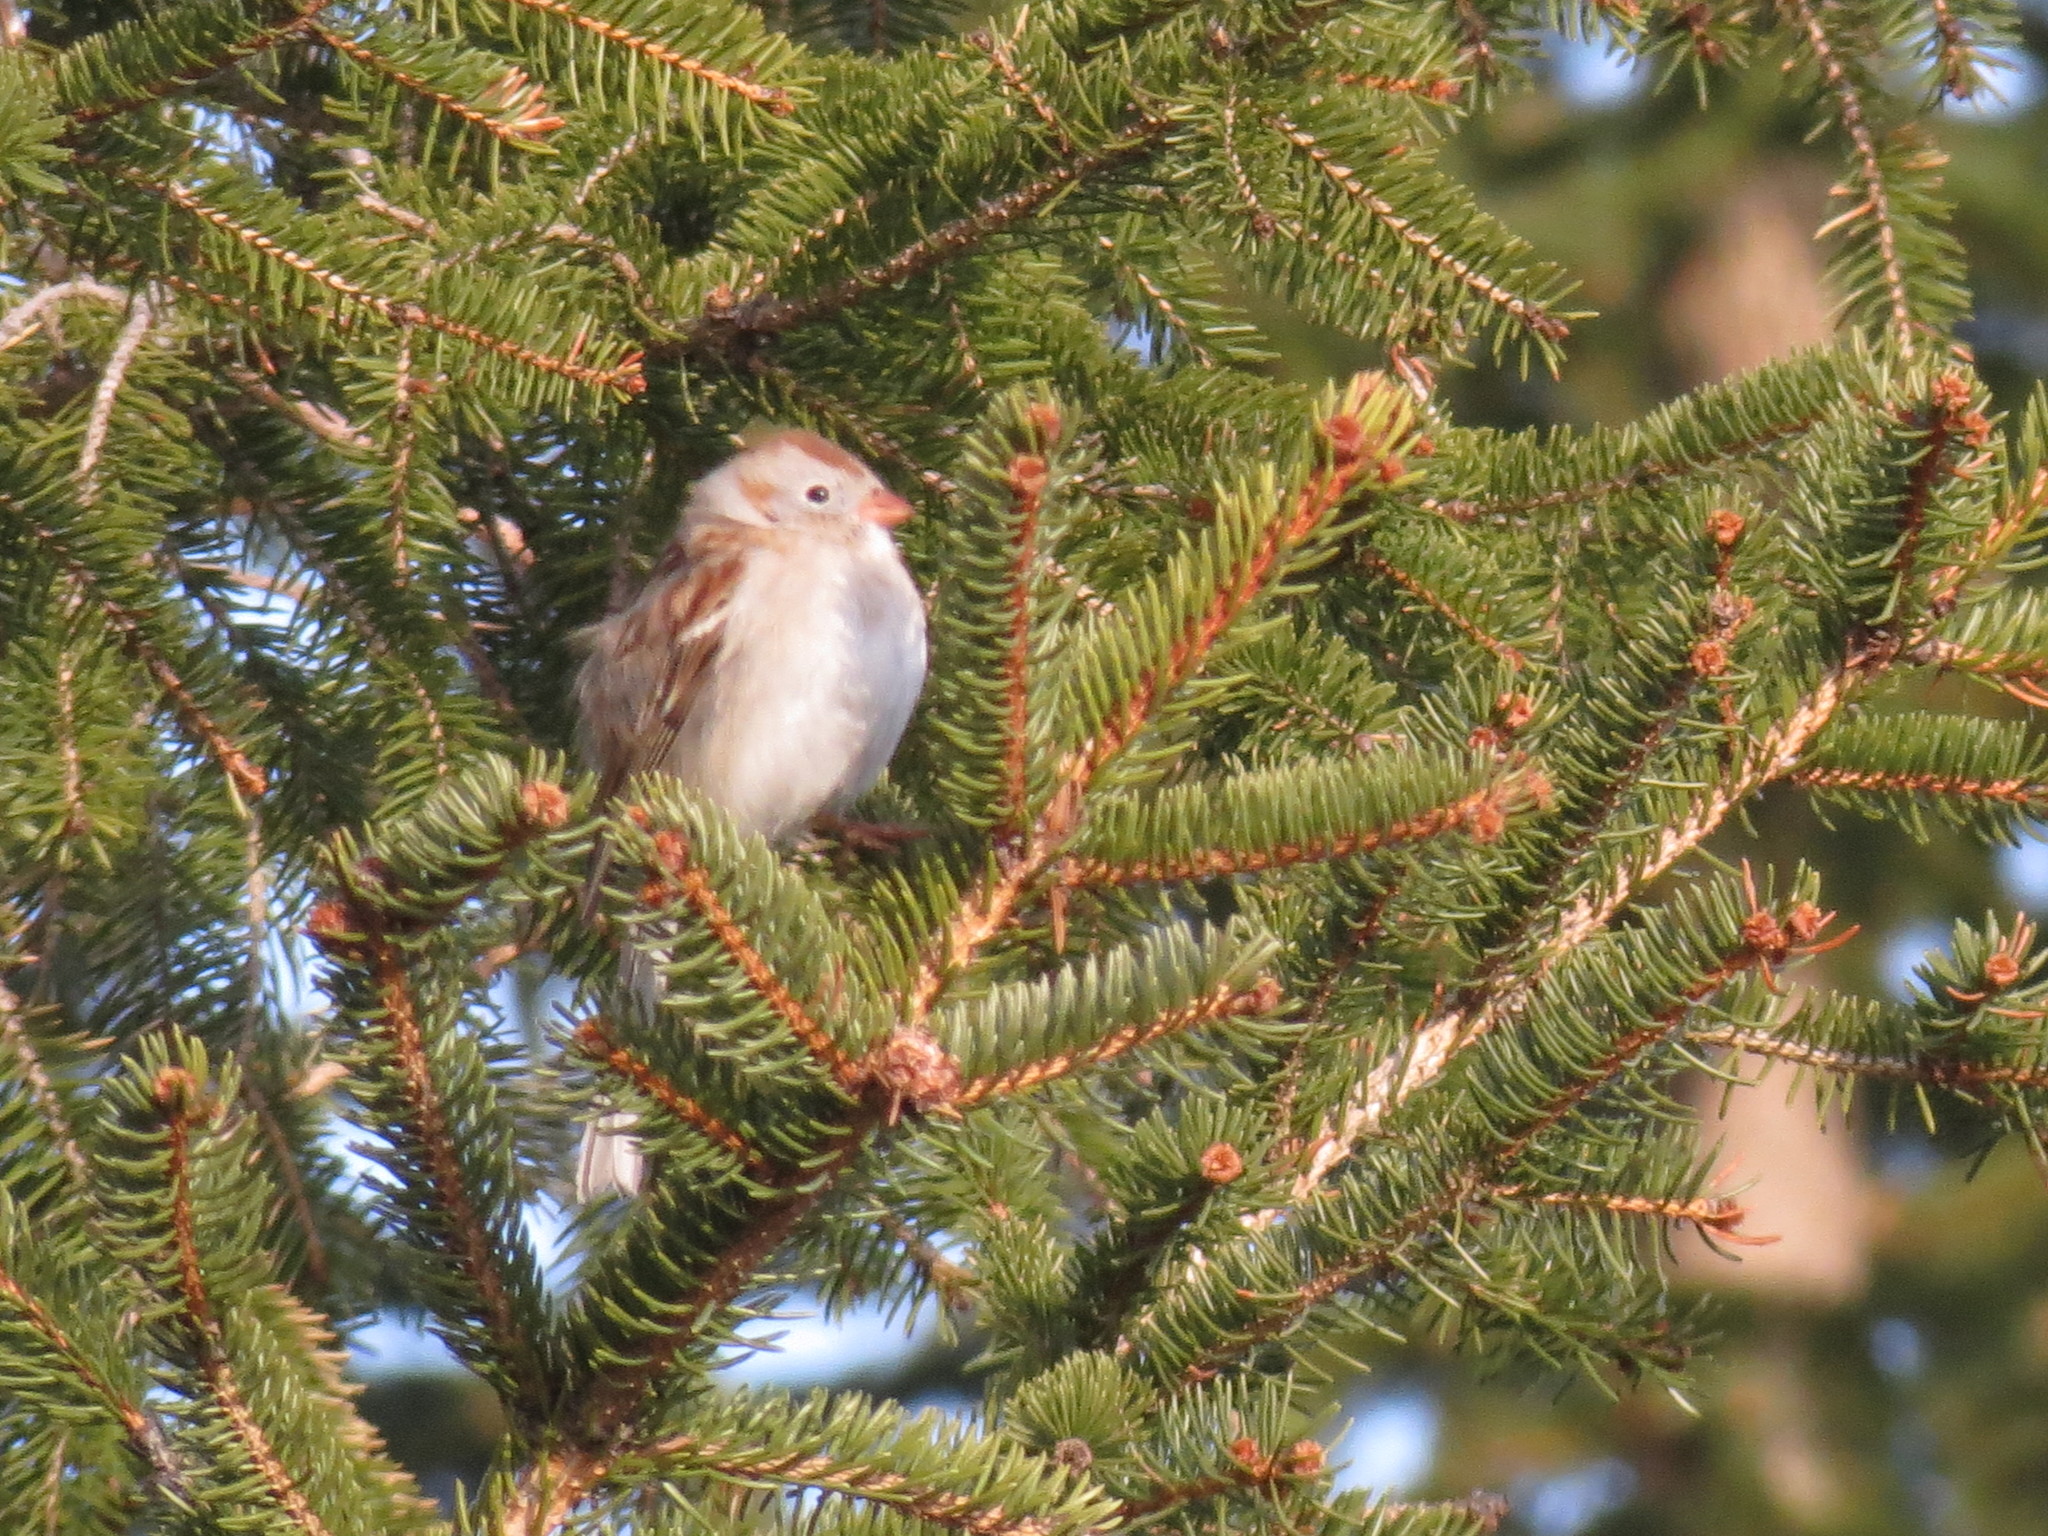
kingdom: Animalia
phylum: Chordata
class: Aves
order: Passeriformes
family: Passerellidae
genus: Spizella
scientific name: Spizella pusilla
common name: Field sparrow
